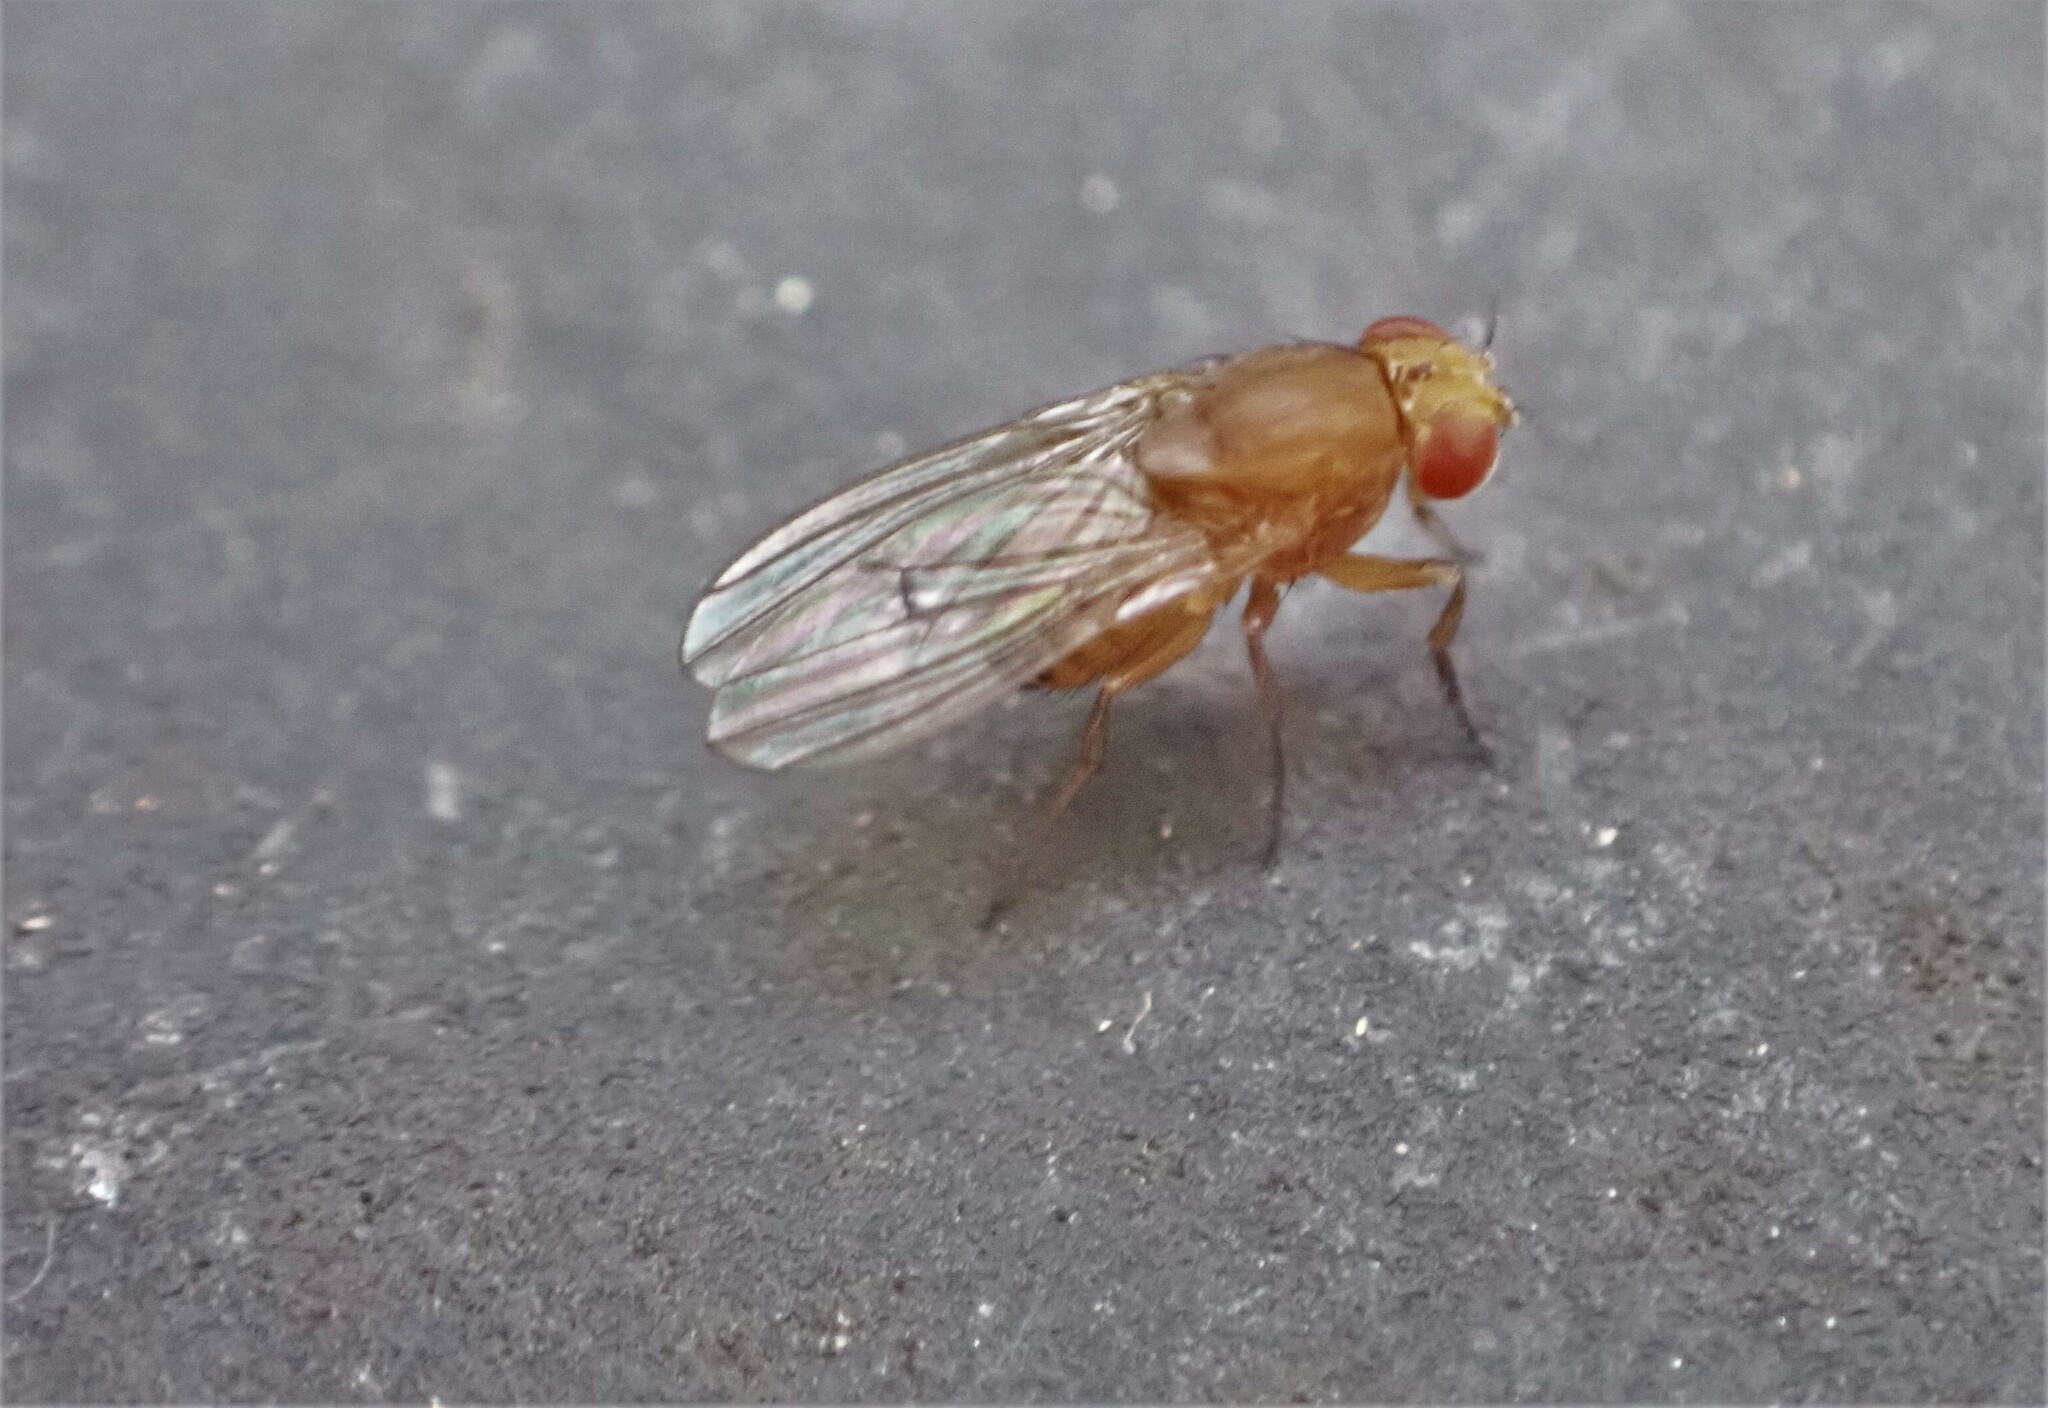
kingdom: Animalia
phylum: Arthropoda
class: Insecta
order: Diptera
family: Drosophilidae
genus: Drosophila
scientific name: Drosophila immigrans
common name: Pomace fly
